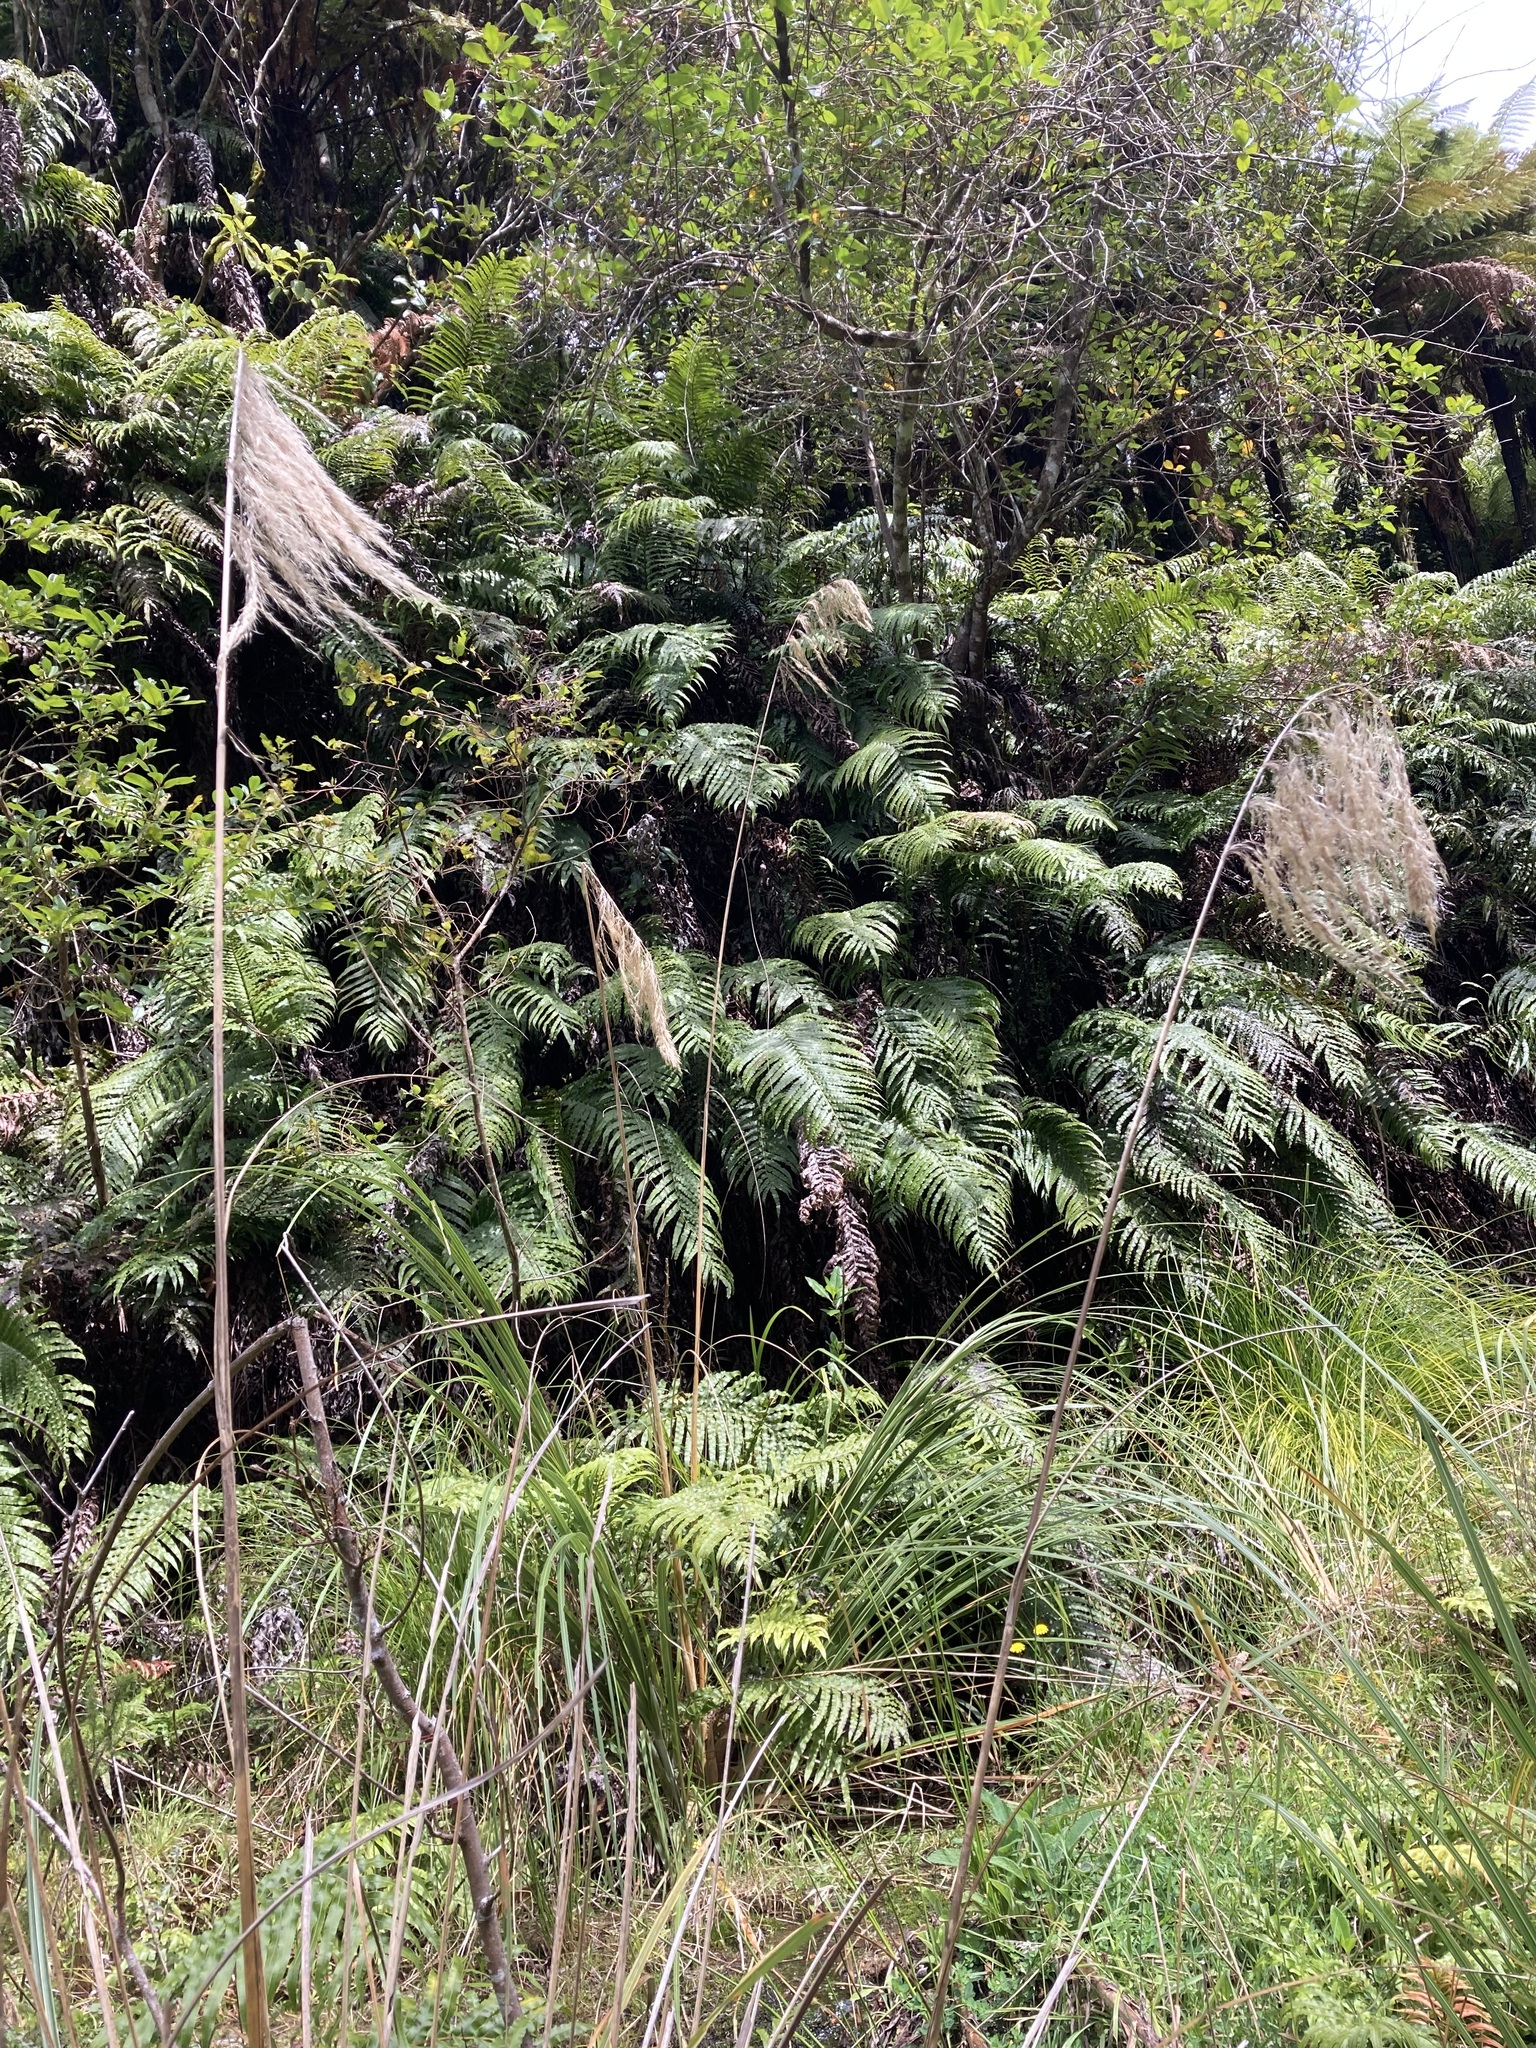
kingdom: Plantae
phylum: Tracheophyta
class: Liliopsida
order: Poales
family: Poaceae
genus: Austroderia
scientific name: Austroderia fulvida
